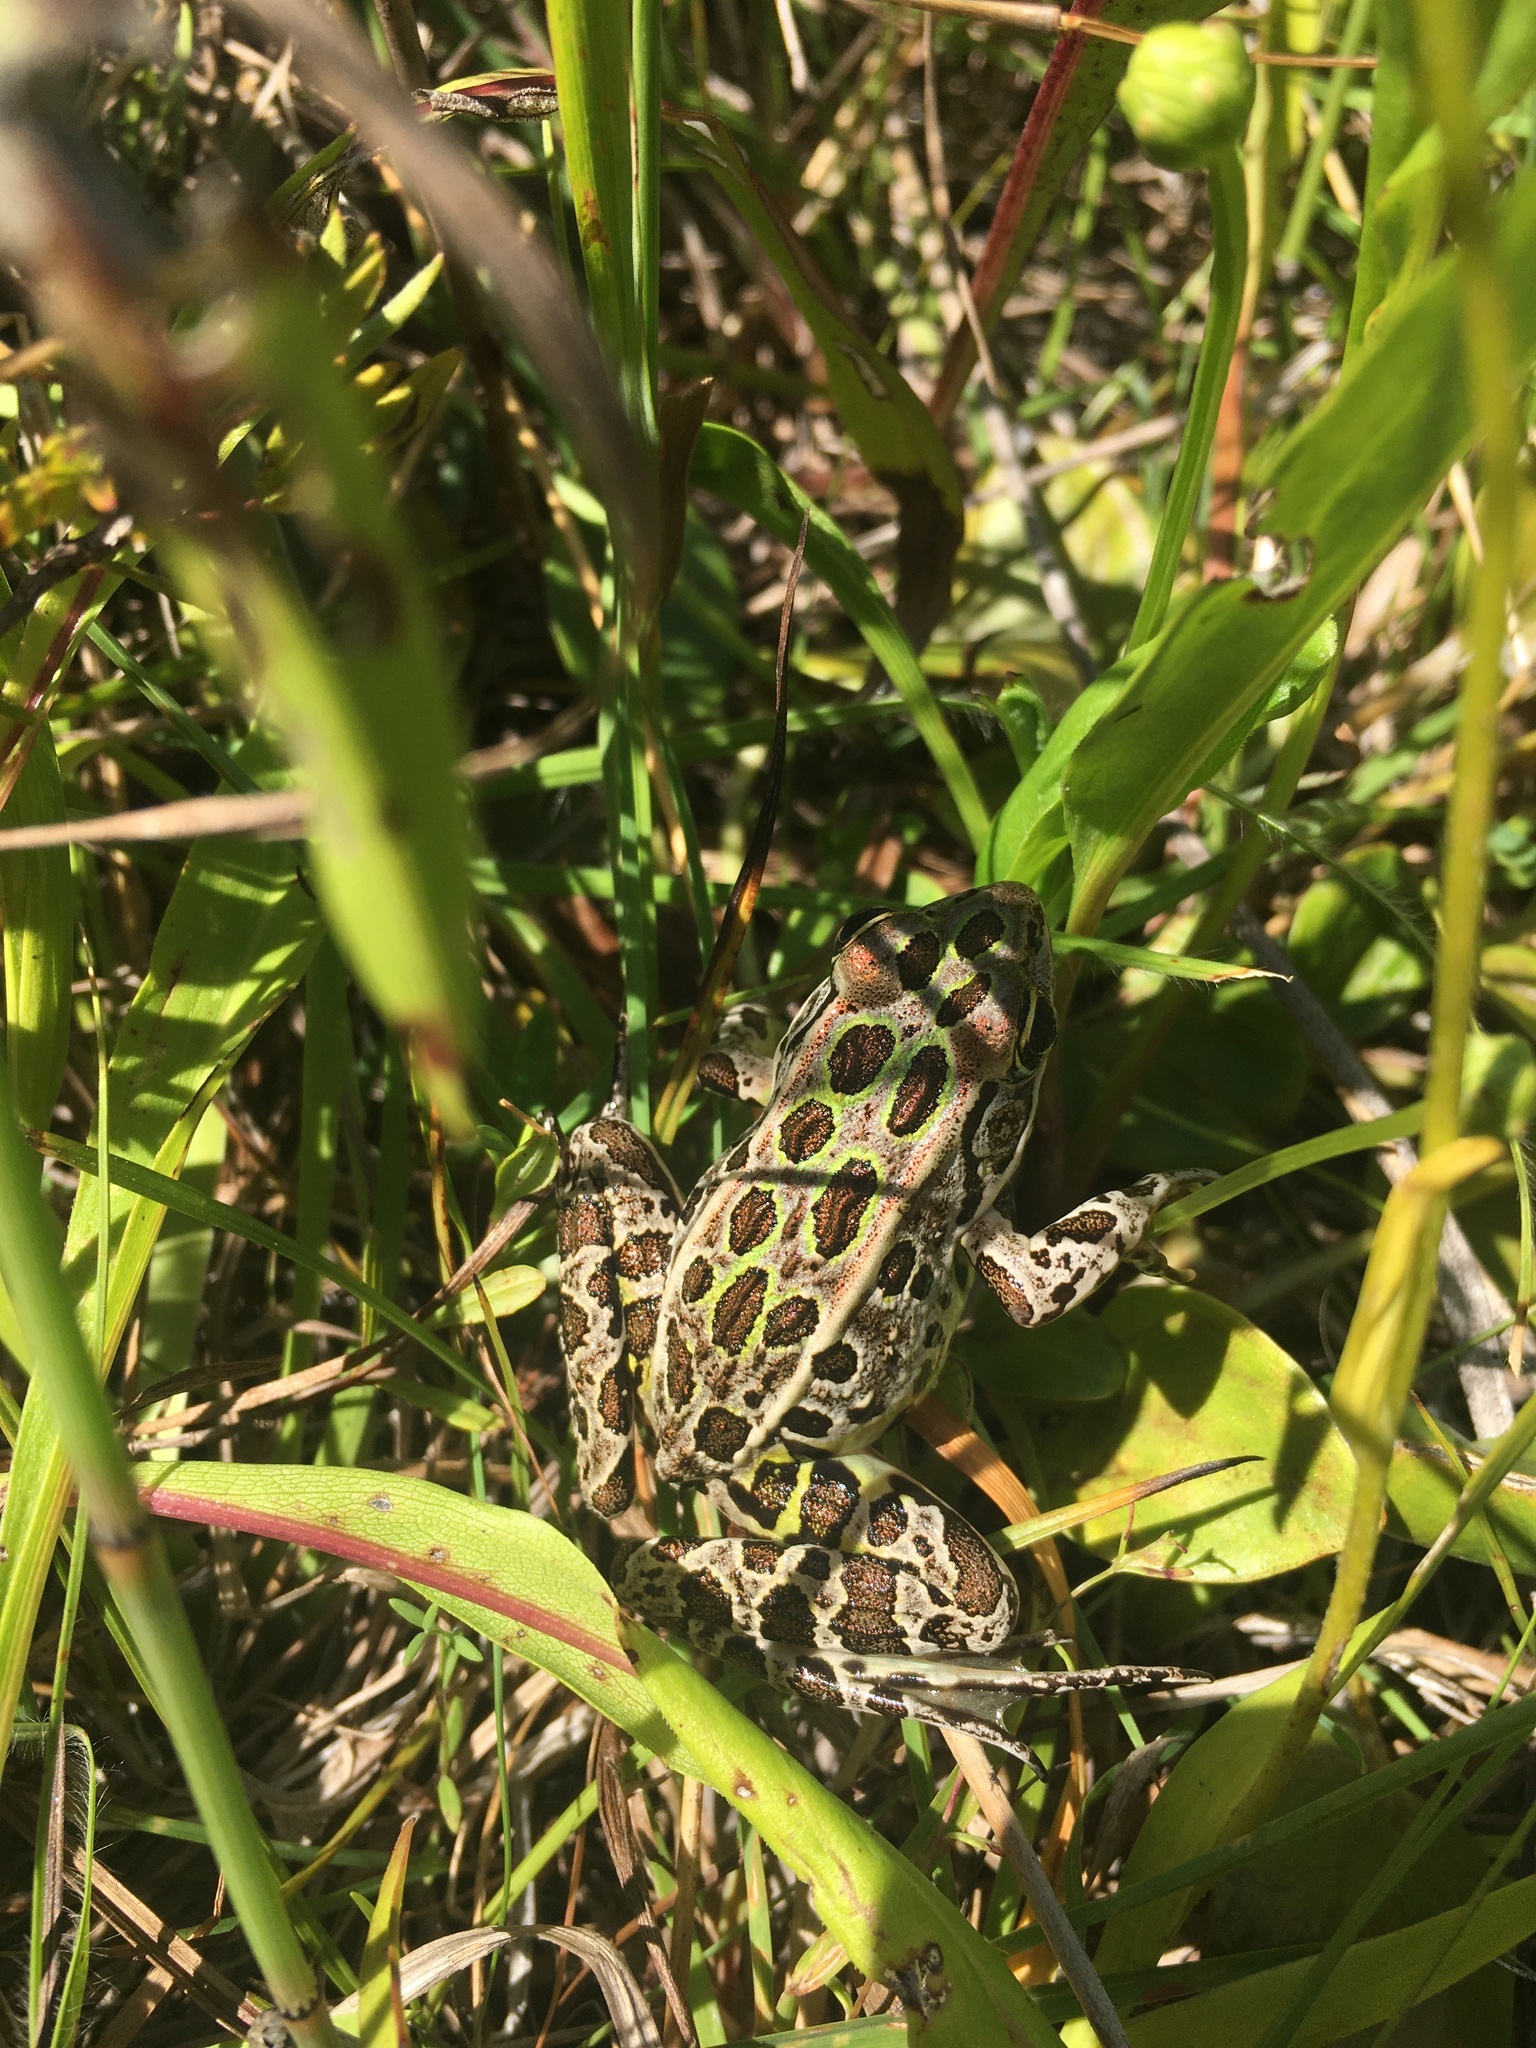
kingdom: Animalia
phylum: Chordata
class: Amphibia
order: Anura
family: Ranidae
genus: Lithobates
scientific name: Lithobates pipiens
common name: Northern leopard frog
